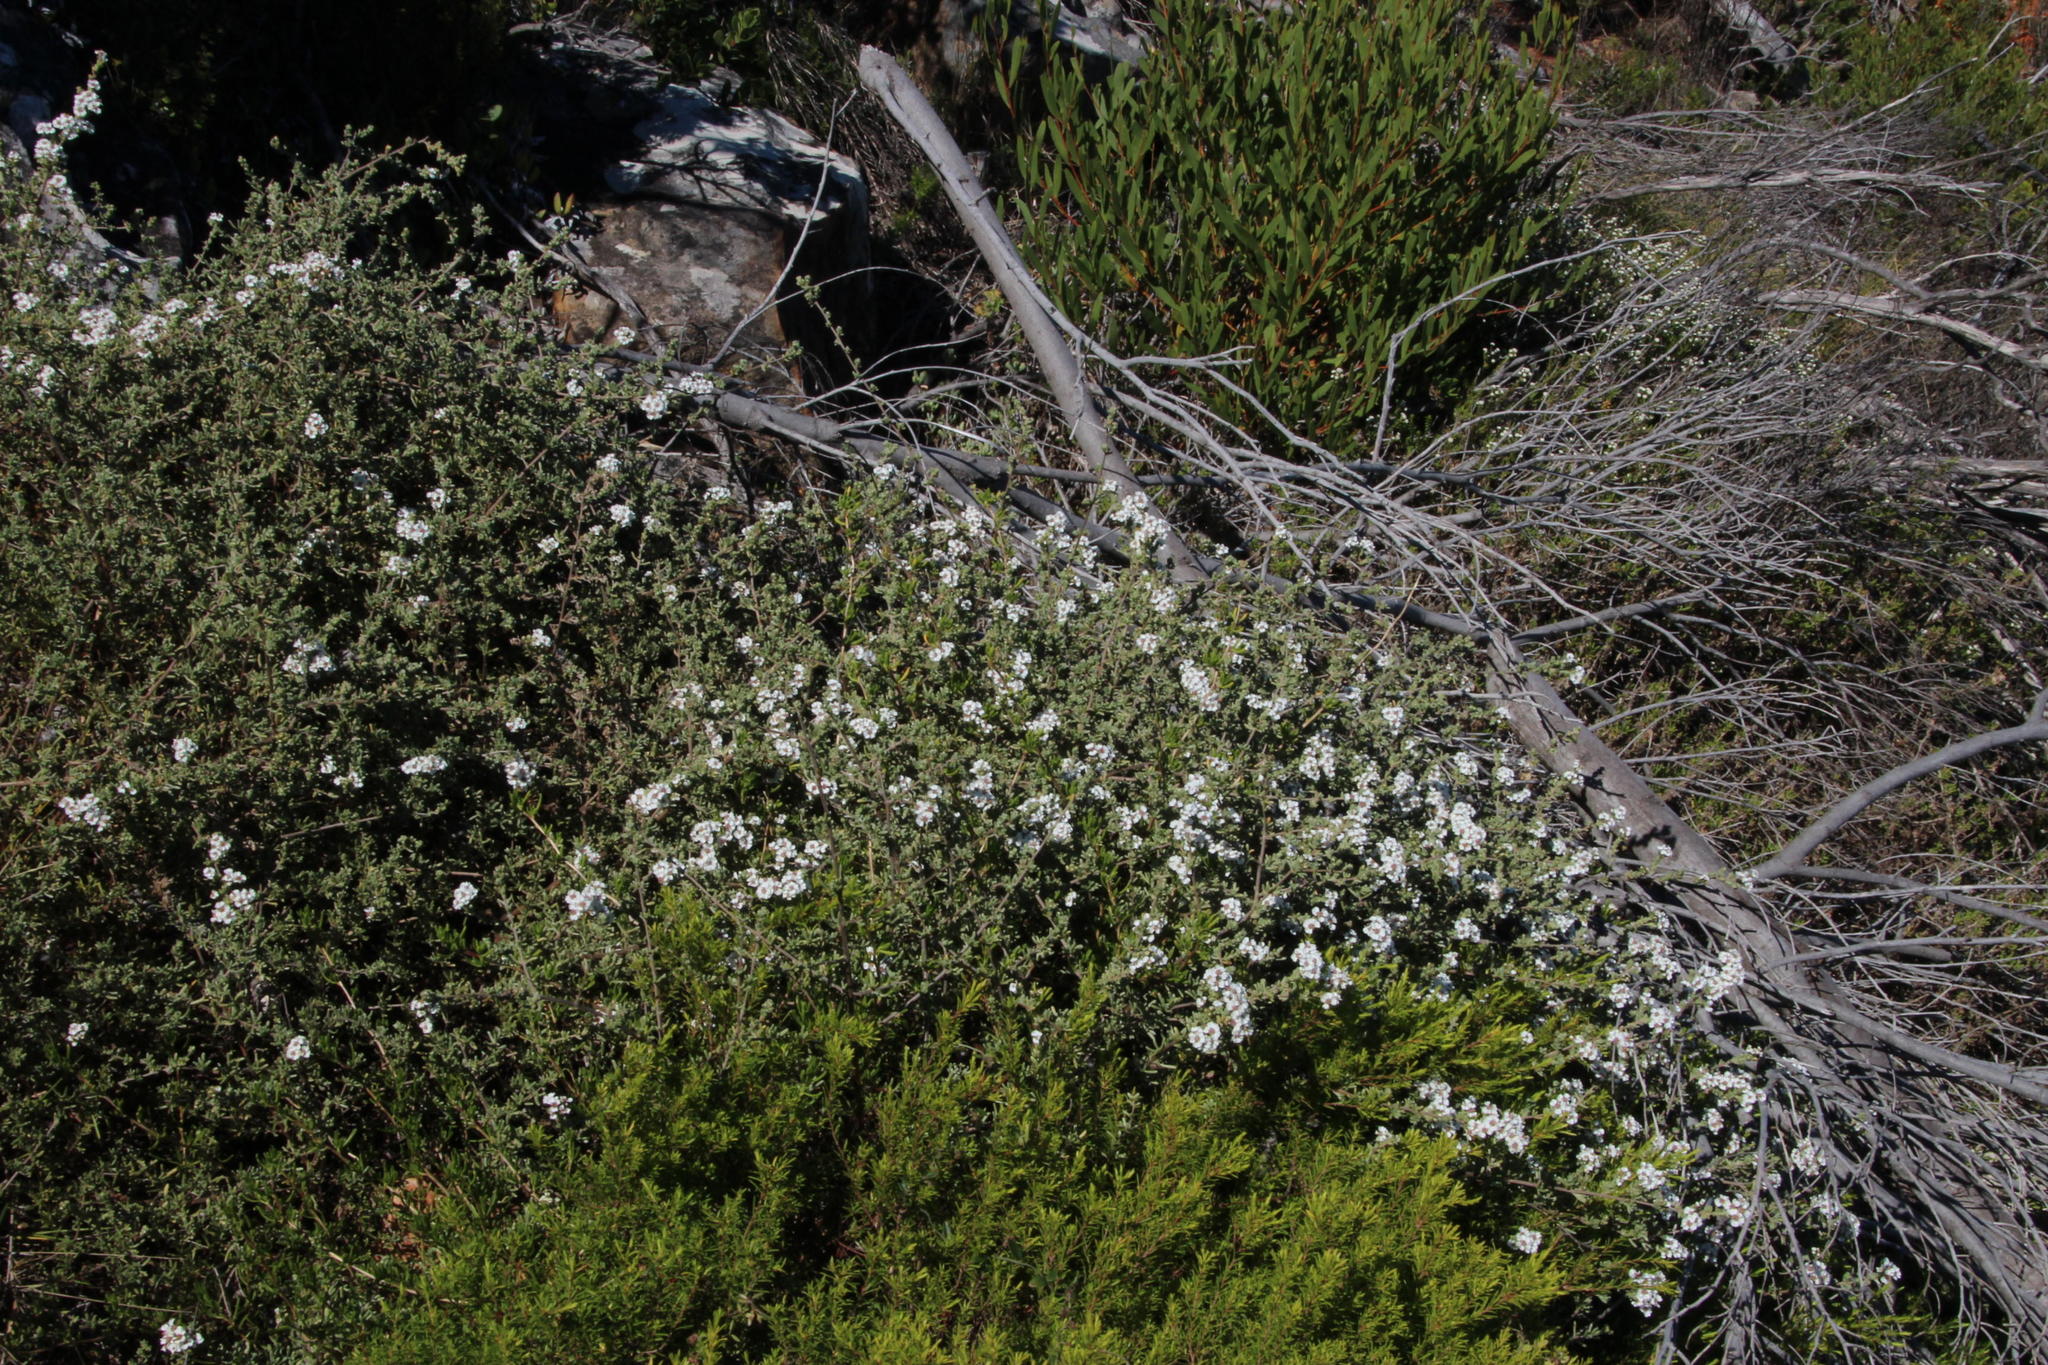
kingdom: Plantae
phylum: Tracheophyta
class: Magnoliopsida
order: Asterales
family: Asteraceae
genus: Eriocephalus
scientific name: Eriocephalus africanus
